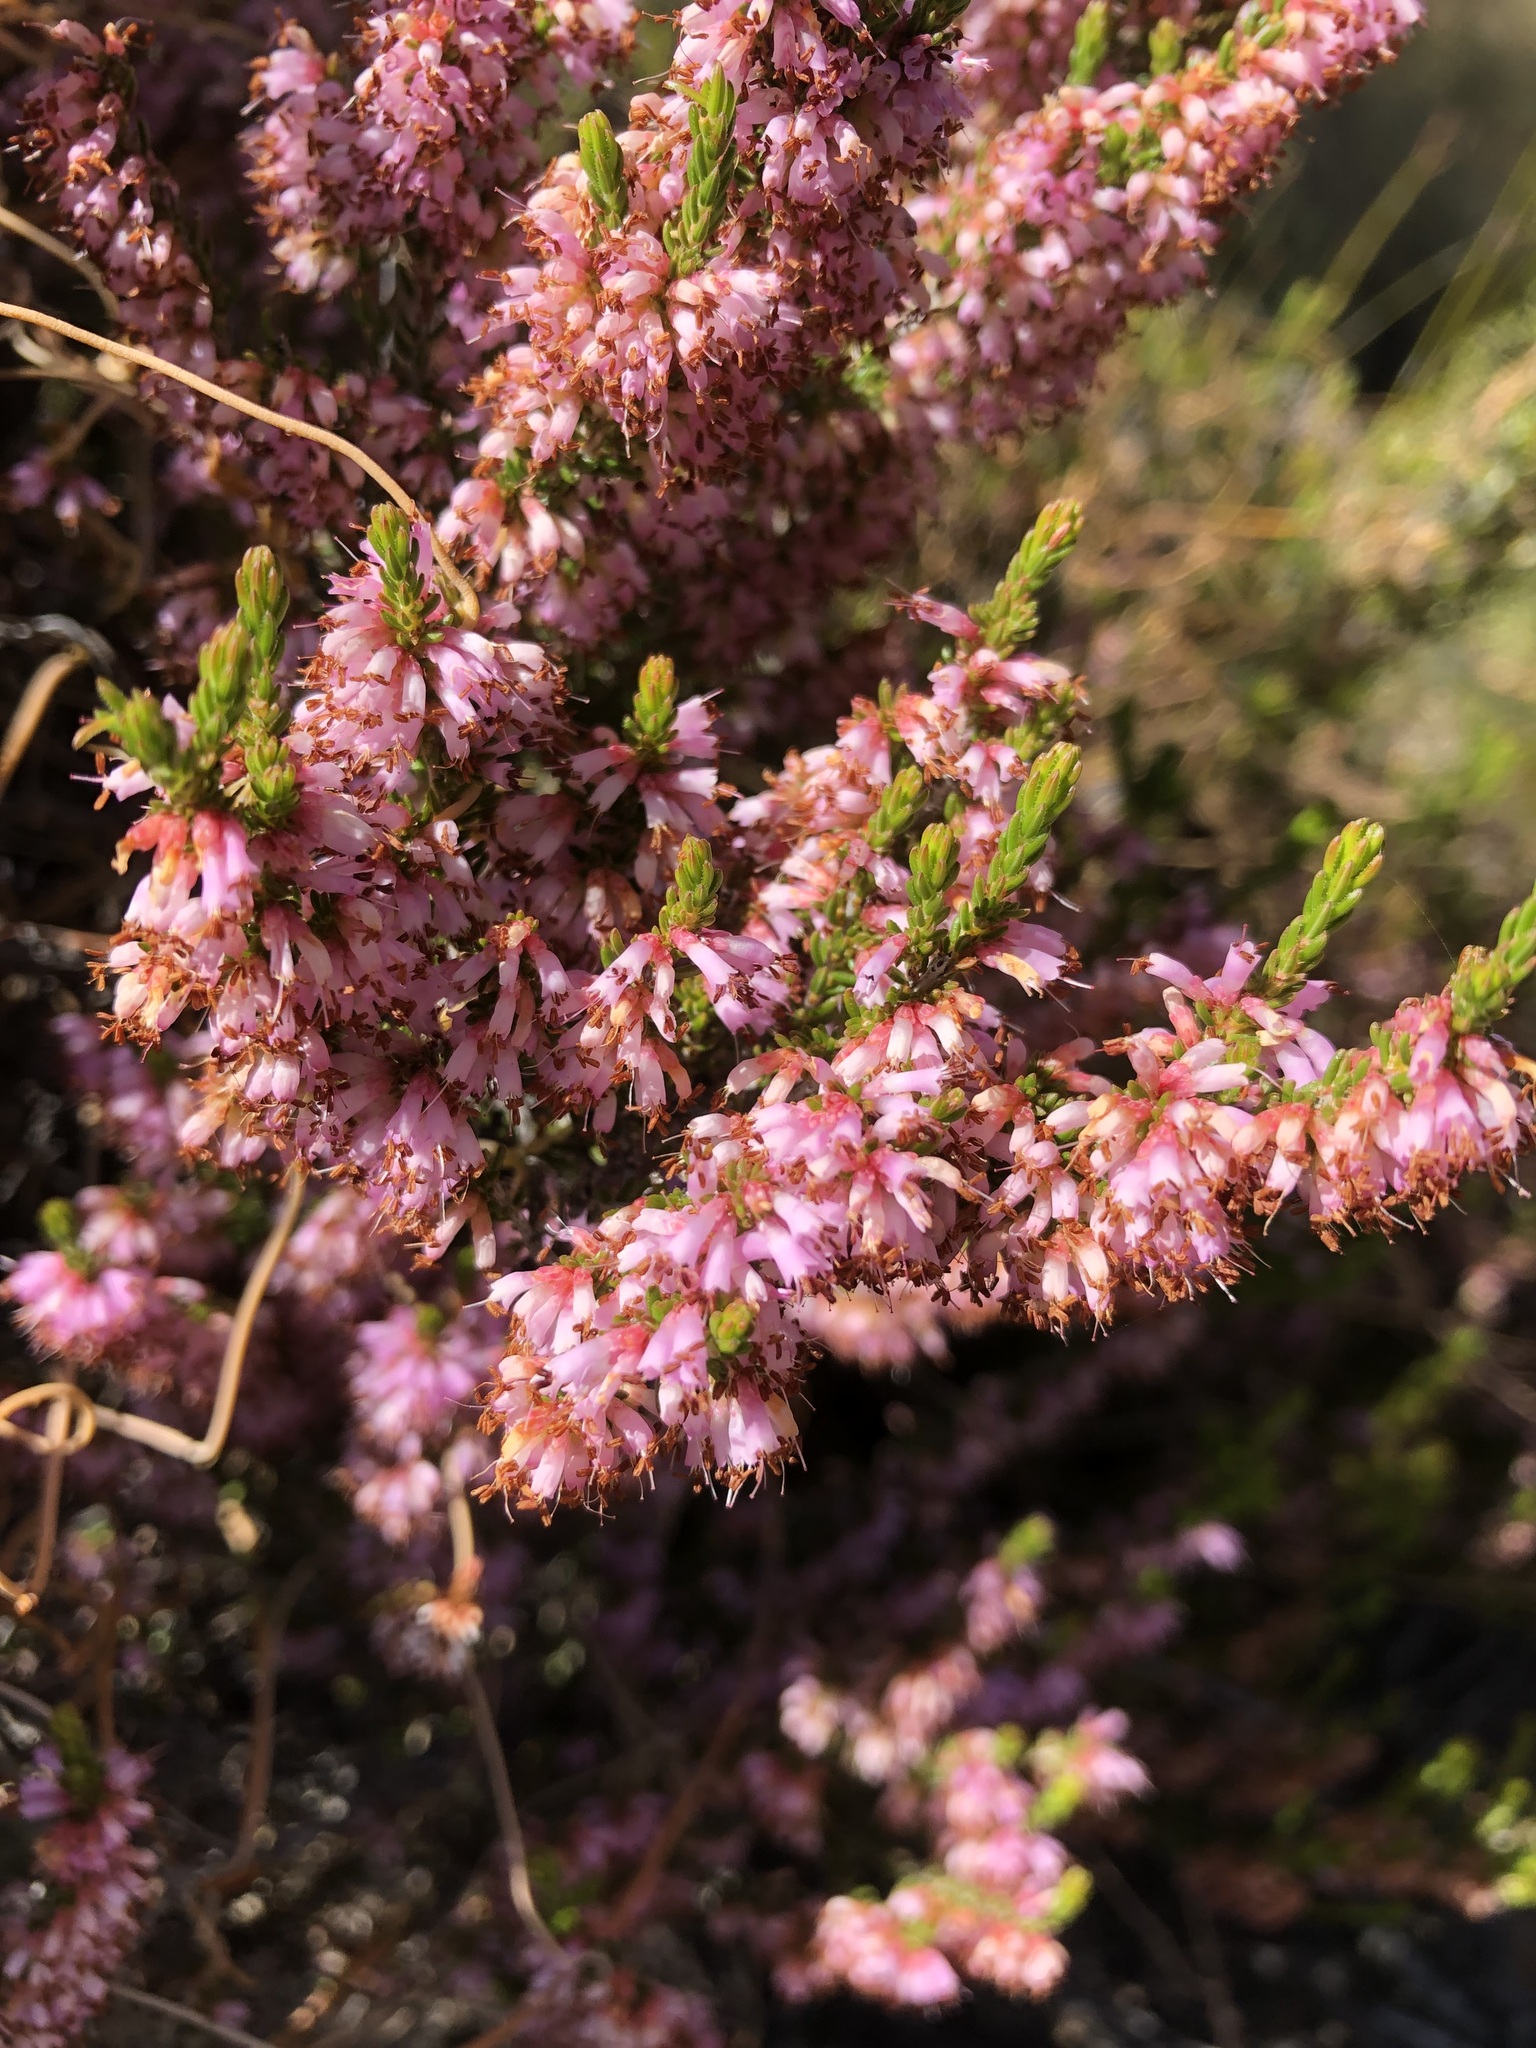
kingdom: Plantae
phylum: Tracheophyta
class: Magnoliopsida
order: Ericales
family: Ericaceae
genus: Erica
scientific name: Erica glabra
